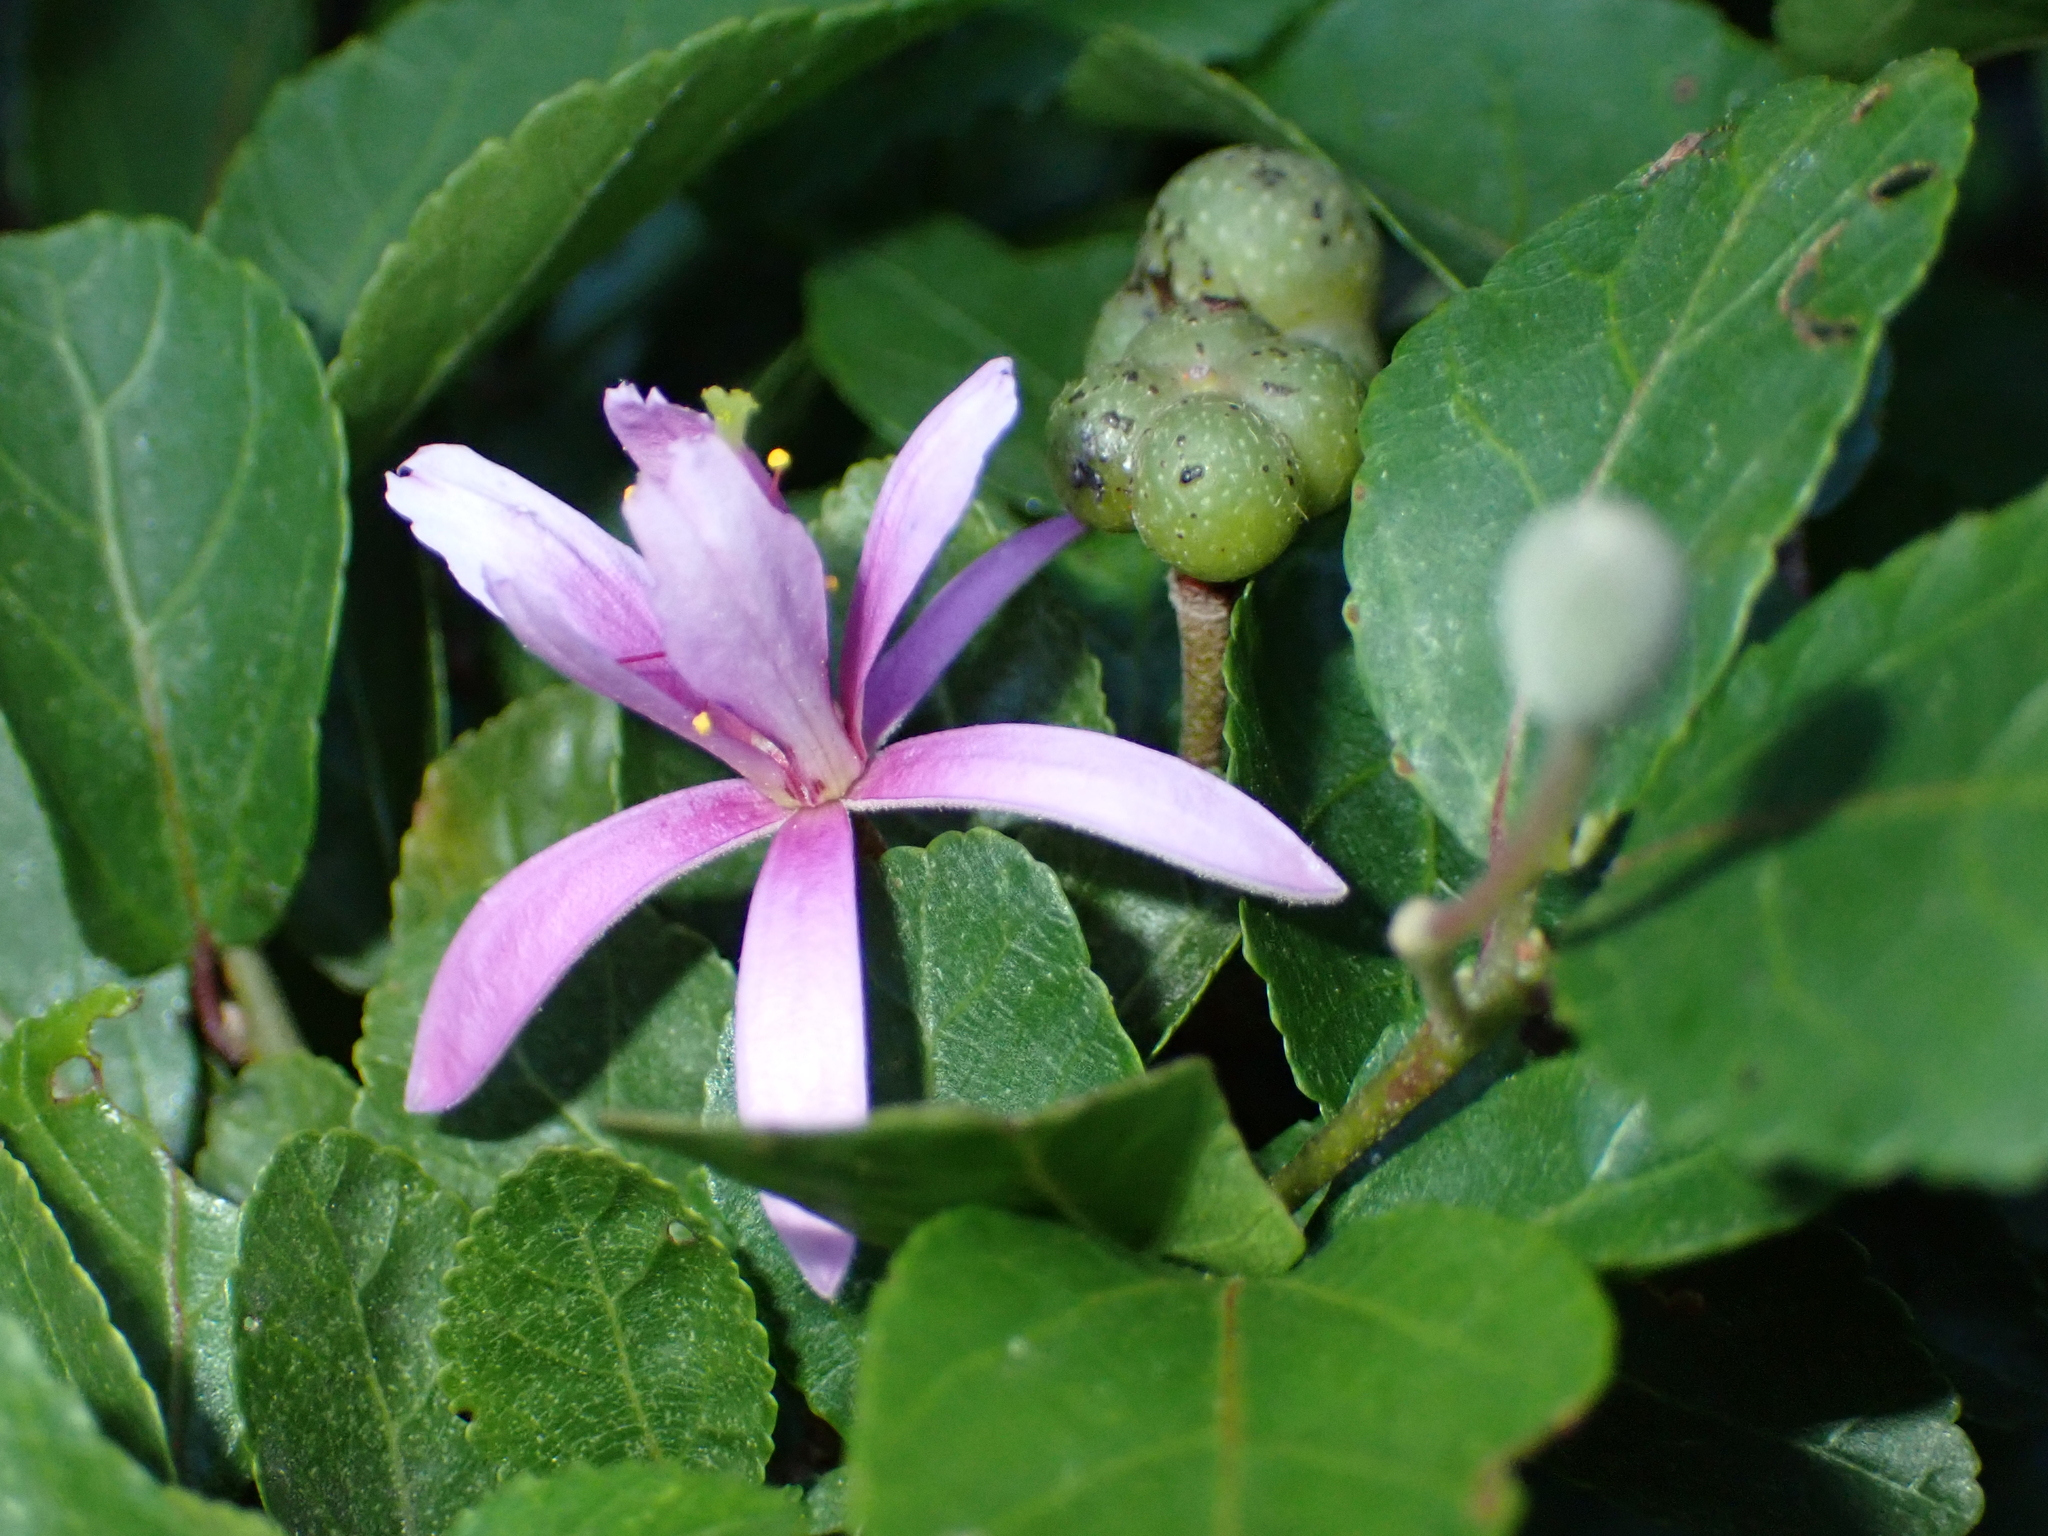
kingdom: Plantae
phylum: Tracheophyta
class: Magnoliopsida
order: Malvales
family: Malvaceae
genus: Grewia
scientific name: Grewia occidentalis
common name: Crossberry
